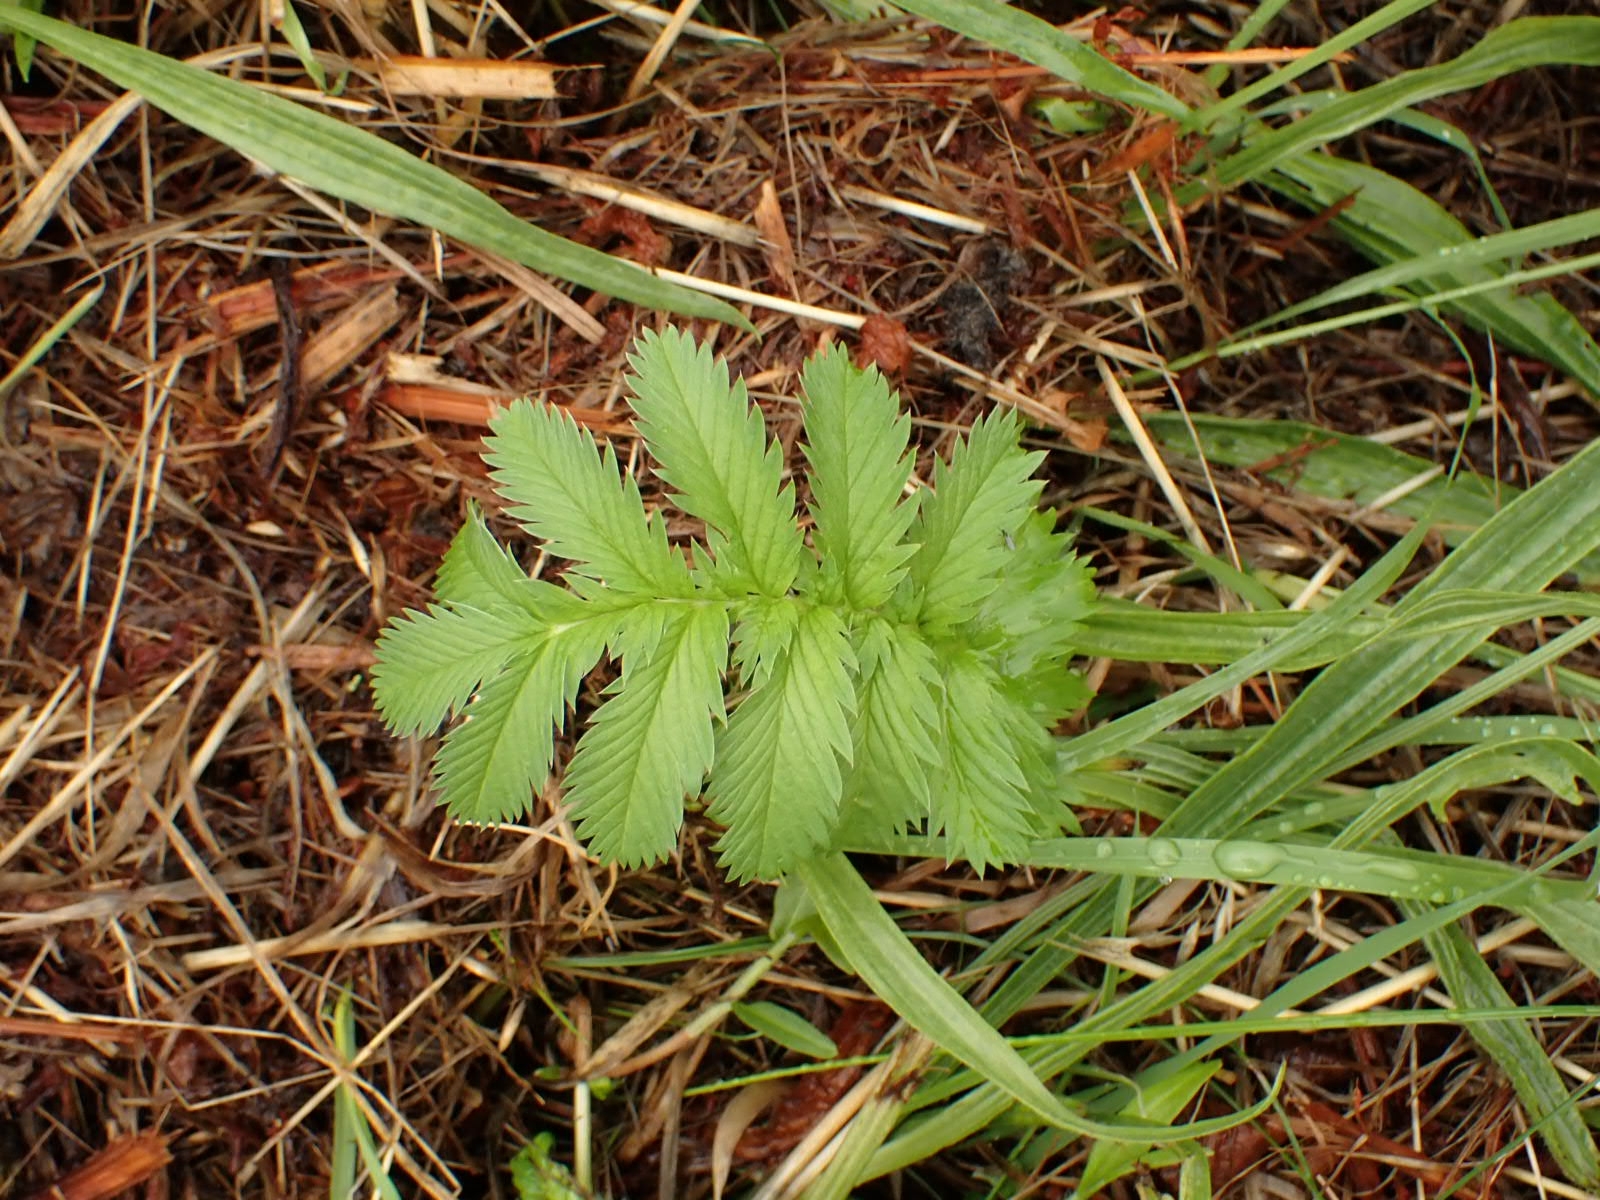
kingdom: Plantae
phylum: Tracheophyta
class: Magnoliopsida
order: Rosales
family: Rosaceae
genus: Argentina
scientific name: Argentina anserina
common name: Common silverweed
